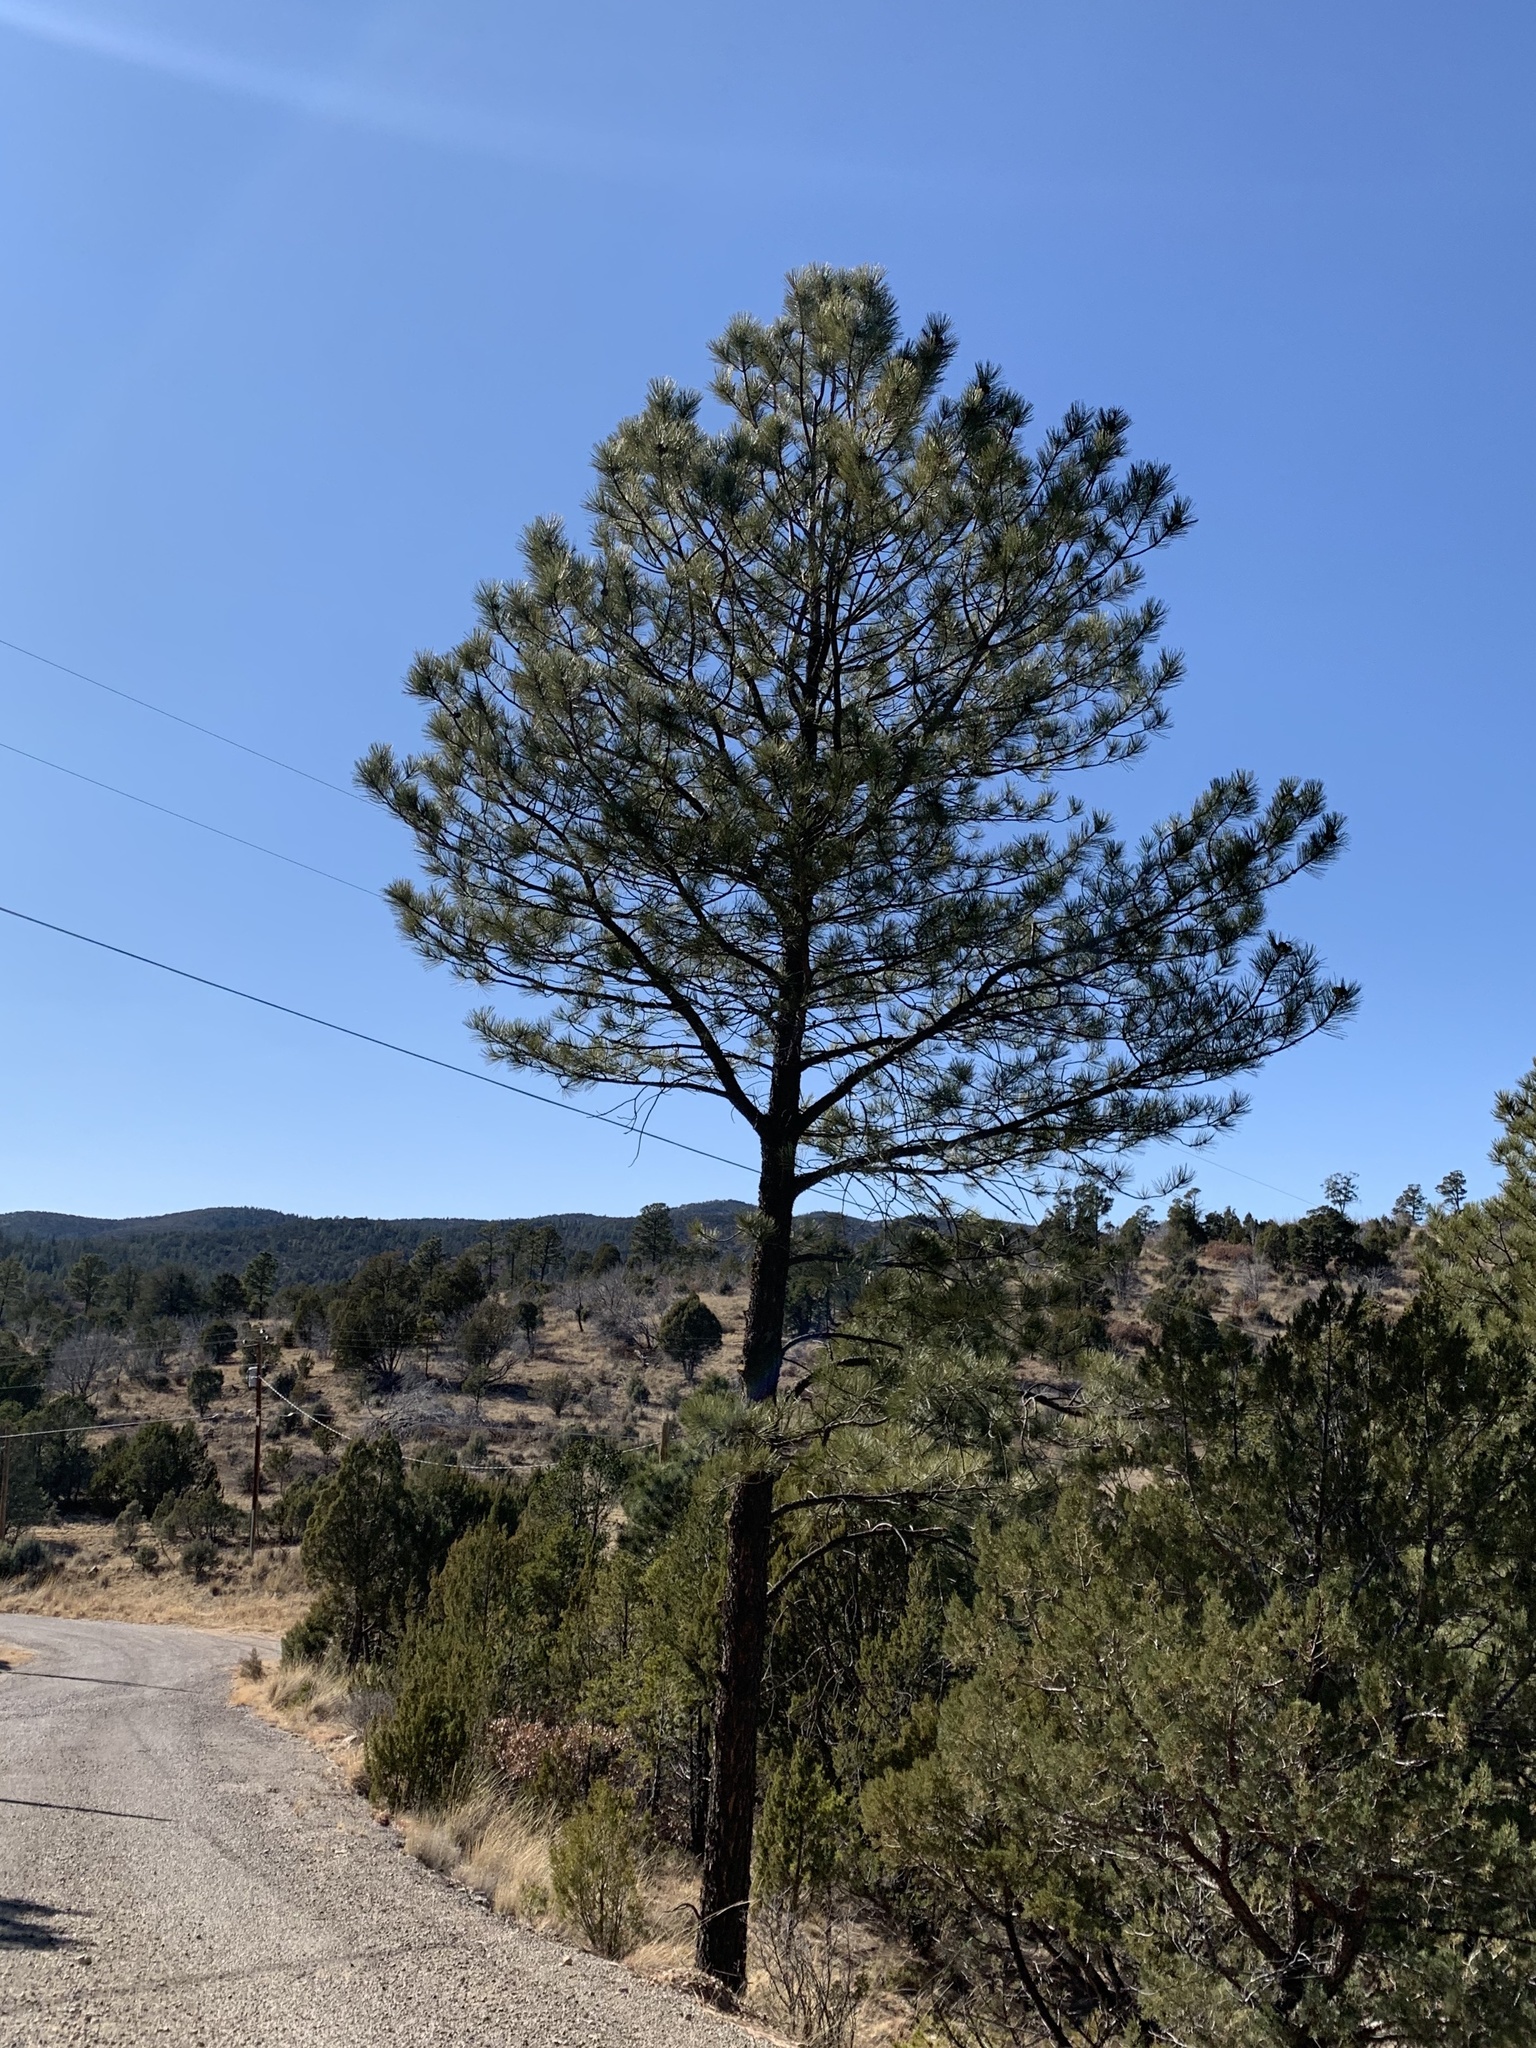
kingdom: Plantae
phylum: Tracheophyta
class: Pinopsida
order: Pinales
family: Pinaceae
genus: Pinus
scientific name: Pinus ponderosa
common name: Western yellow-pine
